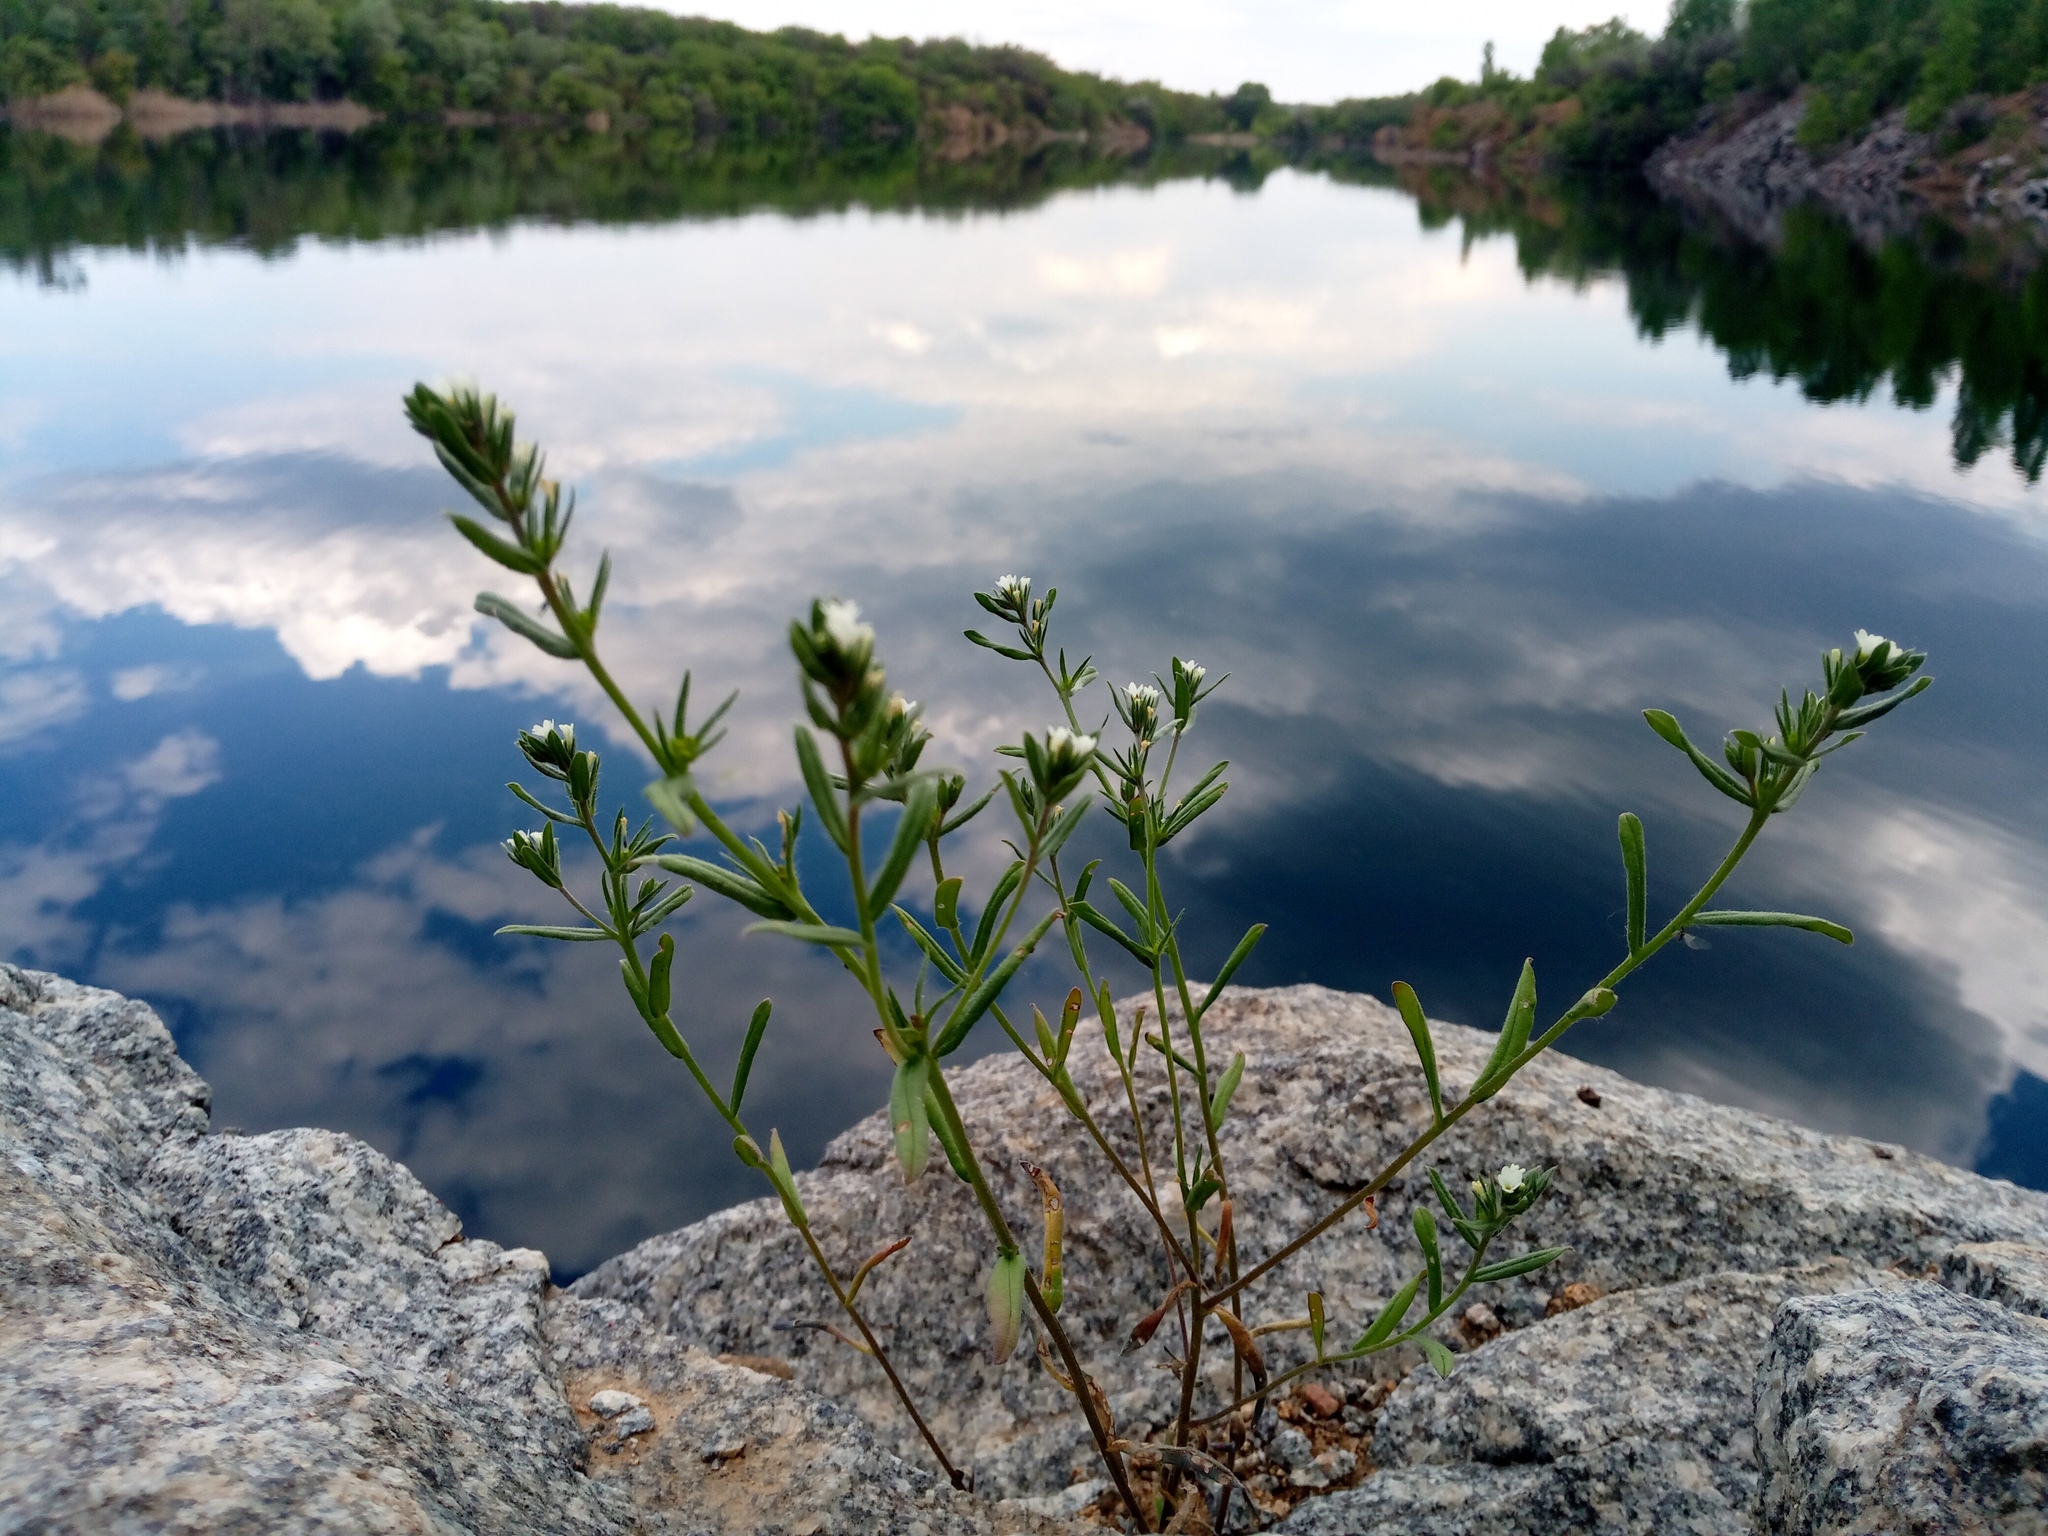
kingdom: Plantae
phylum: Tracheophyta
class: Magnoliopsida
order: Boraginales
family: Boraginaceae
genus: Buglossoides
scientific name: Buglossoides arvensis
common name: Corn gromwell
